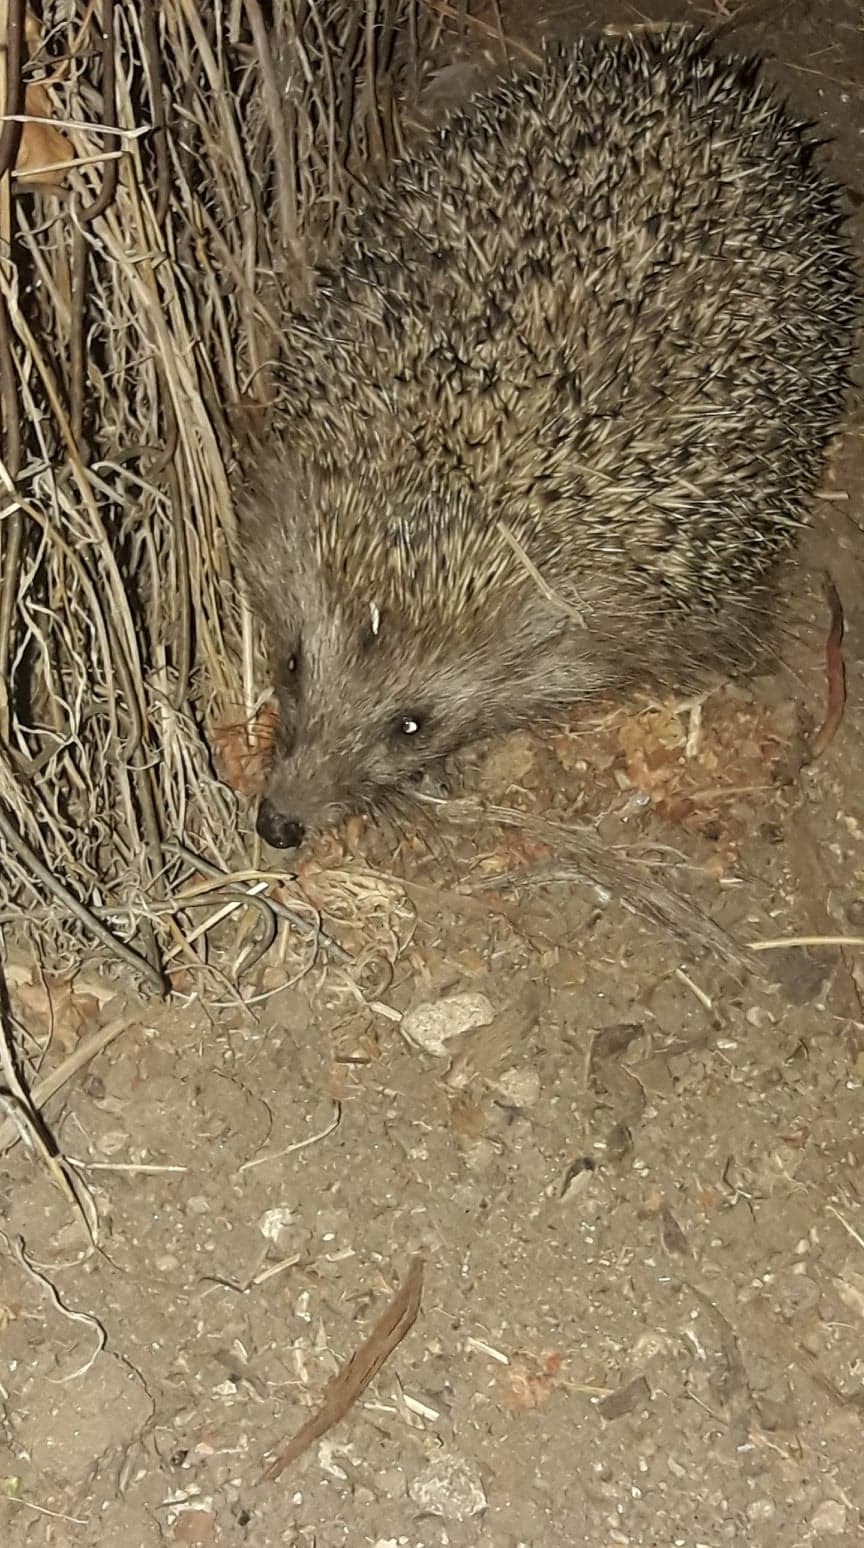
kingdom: Animalia
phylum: Chordata
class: Mammalia
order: Erinaceomorpha
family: Erinaceidae
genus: Erinaceus
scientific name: Erinaceus roumanicus
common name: Northern white-breasted hedgehog
